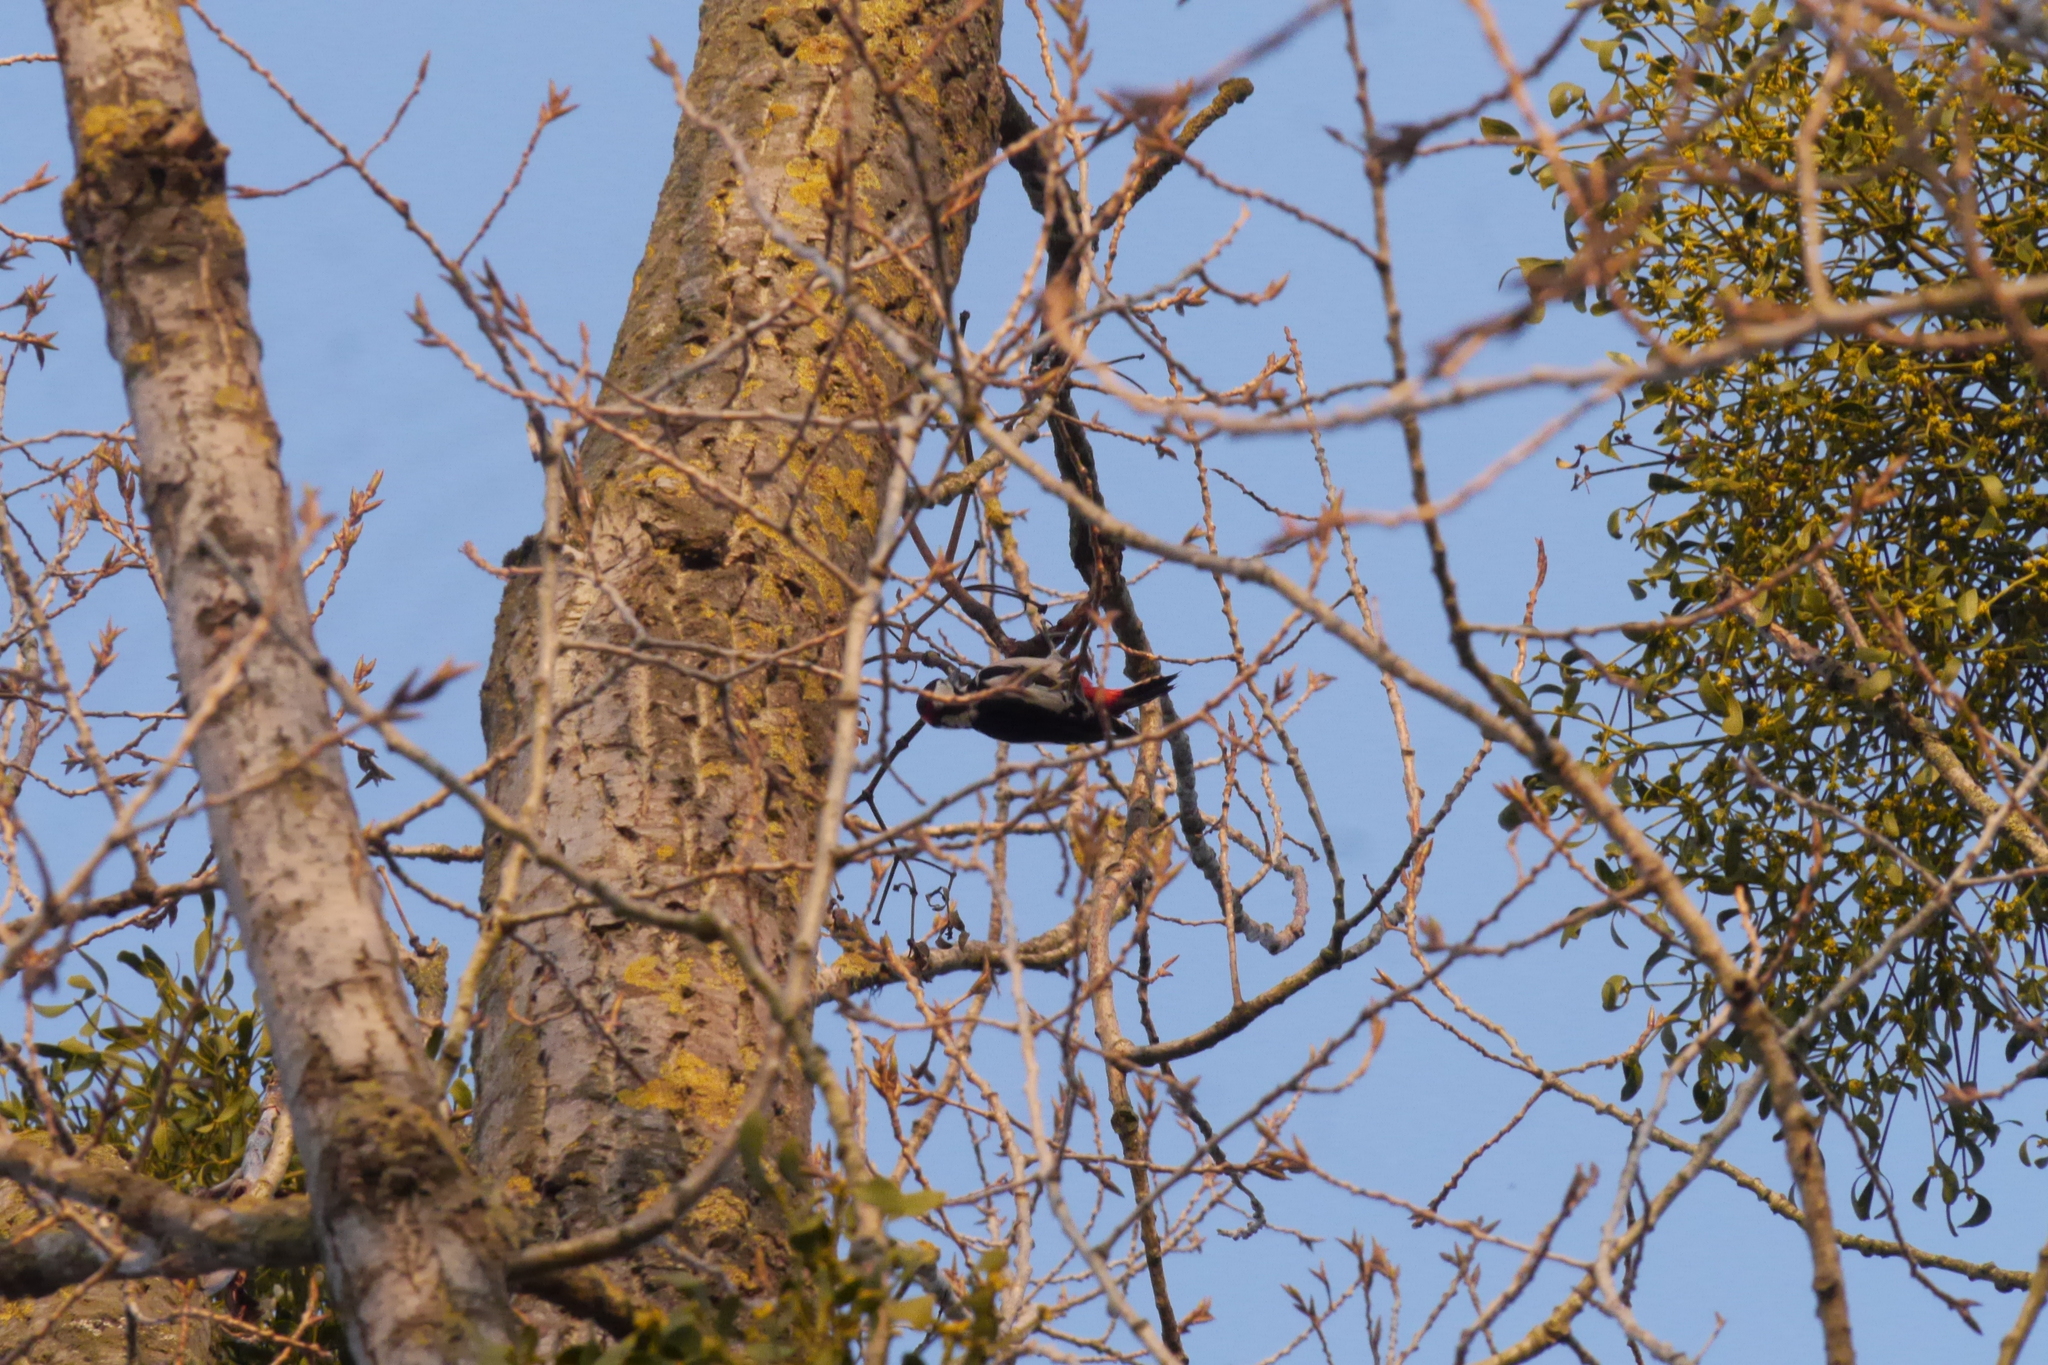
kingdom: Animalia
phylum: Chordata
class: Aves
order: Piciformes
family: Picidae
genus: Dendrocopos
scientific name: Dendrocopos major
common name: Great spotted woodpecker
